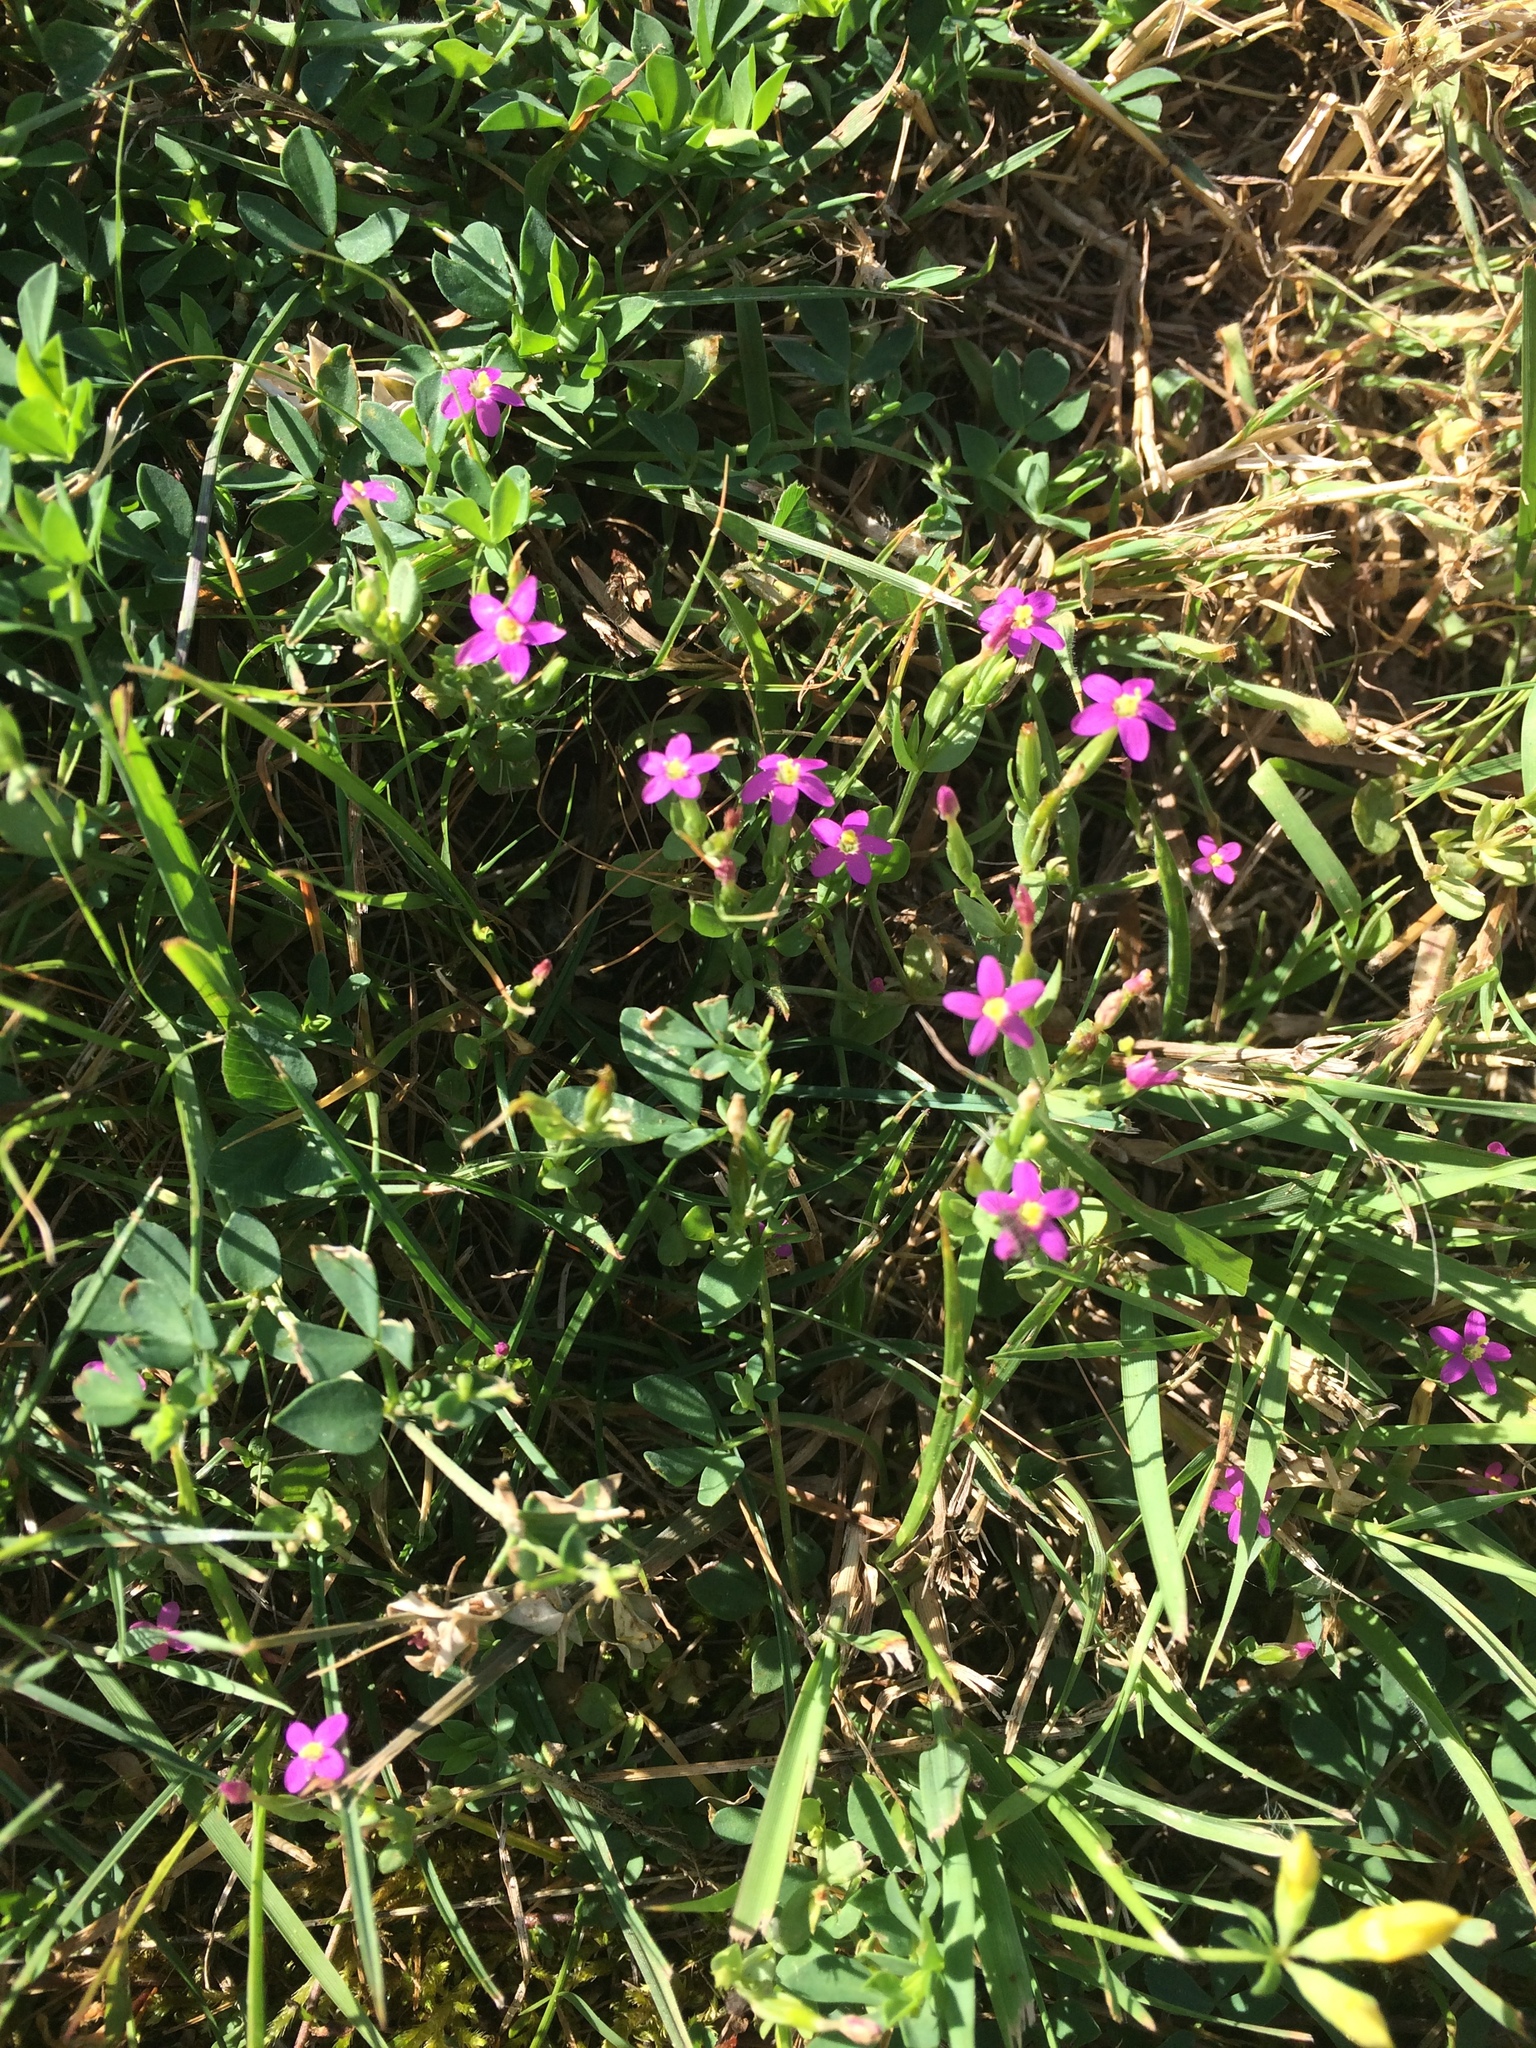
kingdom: Plantae
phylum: Tracheophyta
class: Magnoliopsida
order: Gentianales
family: Gentianaceae
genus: Centaurium
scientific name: Centaurium pulchellum
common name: Lesser centaury
